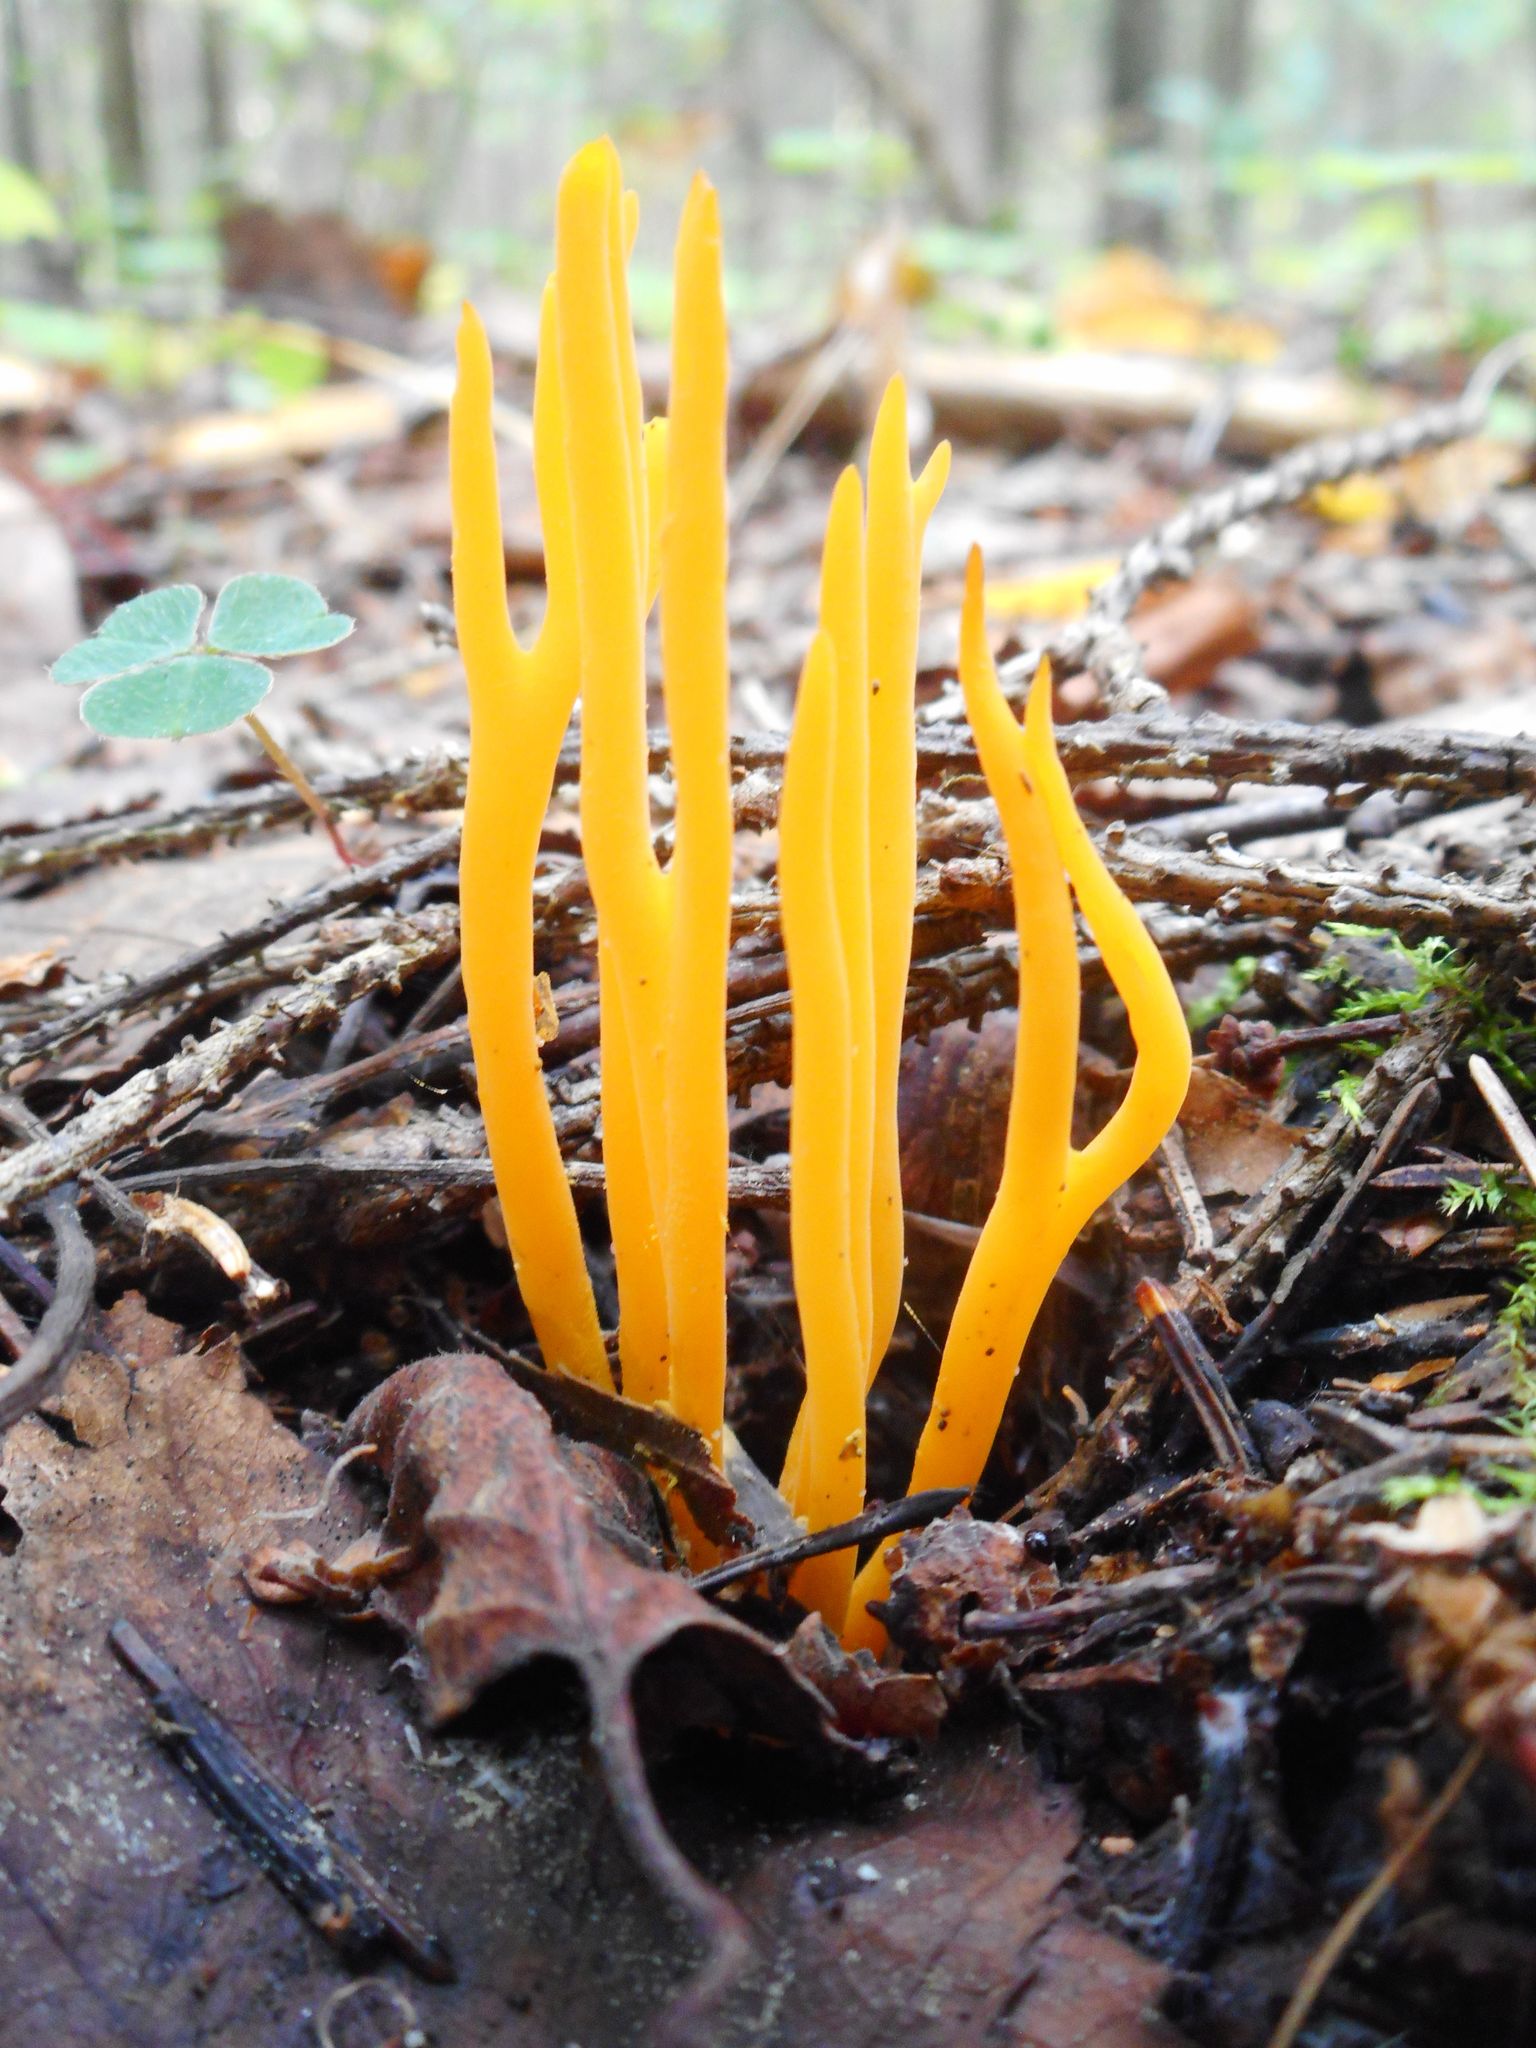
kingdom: Fungi
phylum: Basidiomycota
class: Dacrymycetes
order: Dacrymycetales
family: Dacrymycetaceae
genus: Calocera
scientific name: Calocera viscosa
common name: Yellow stagshorn
